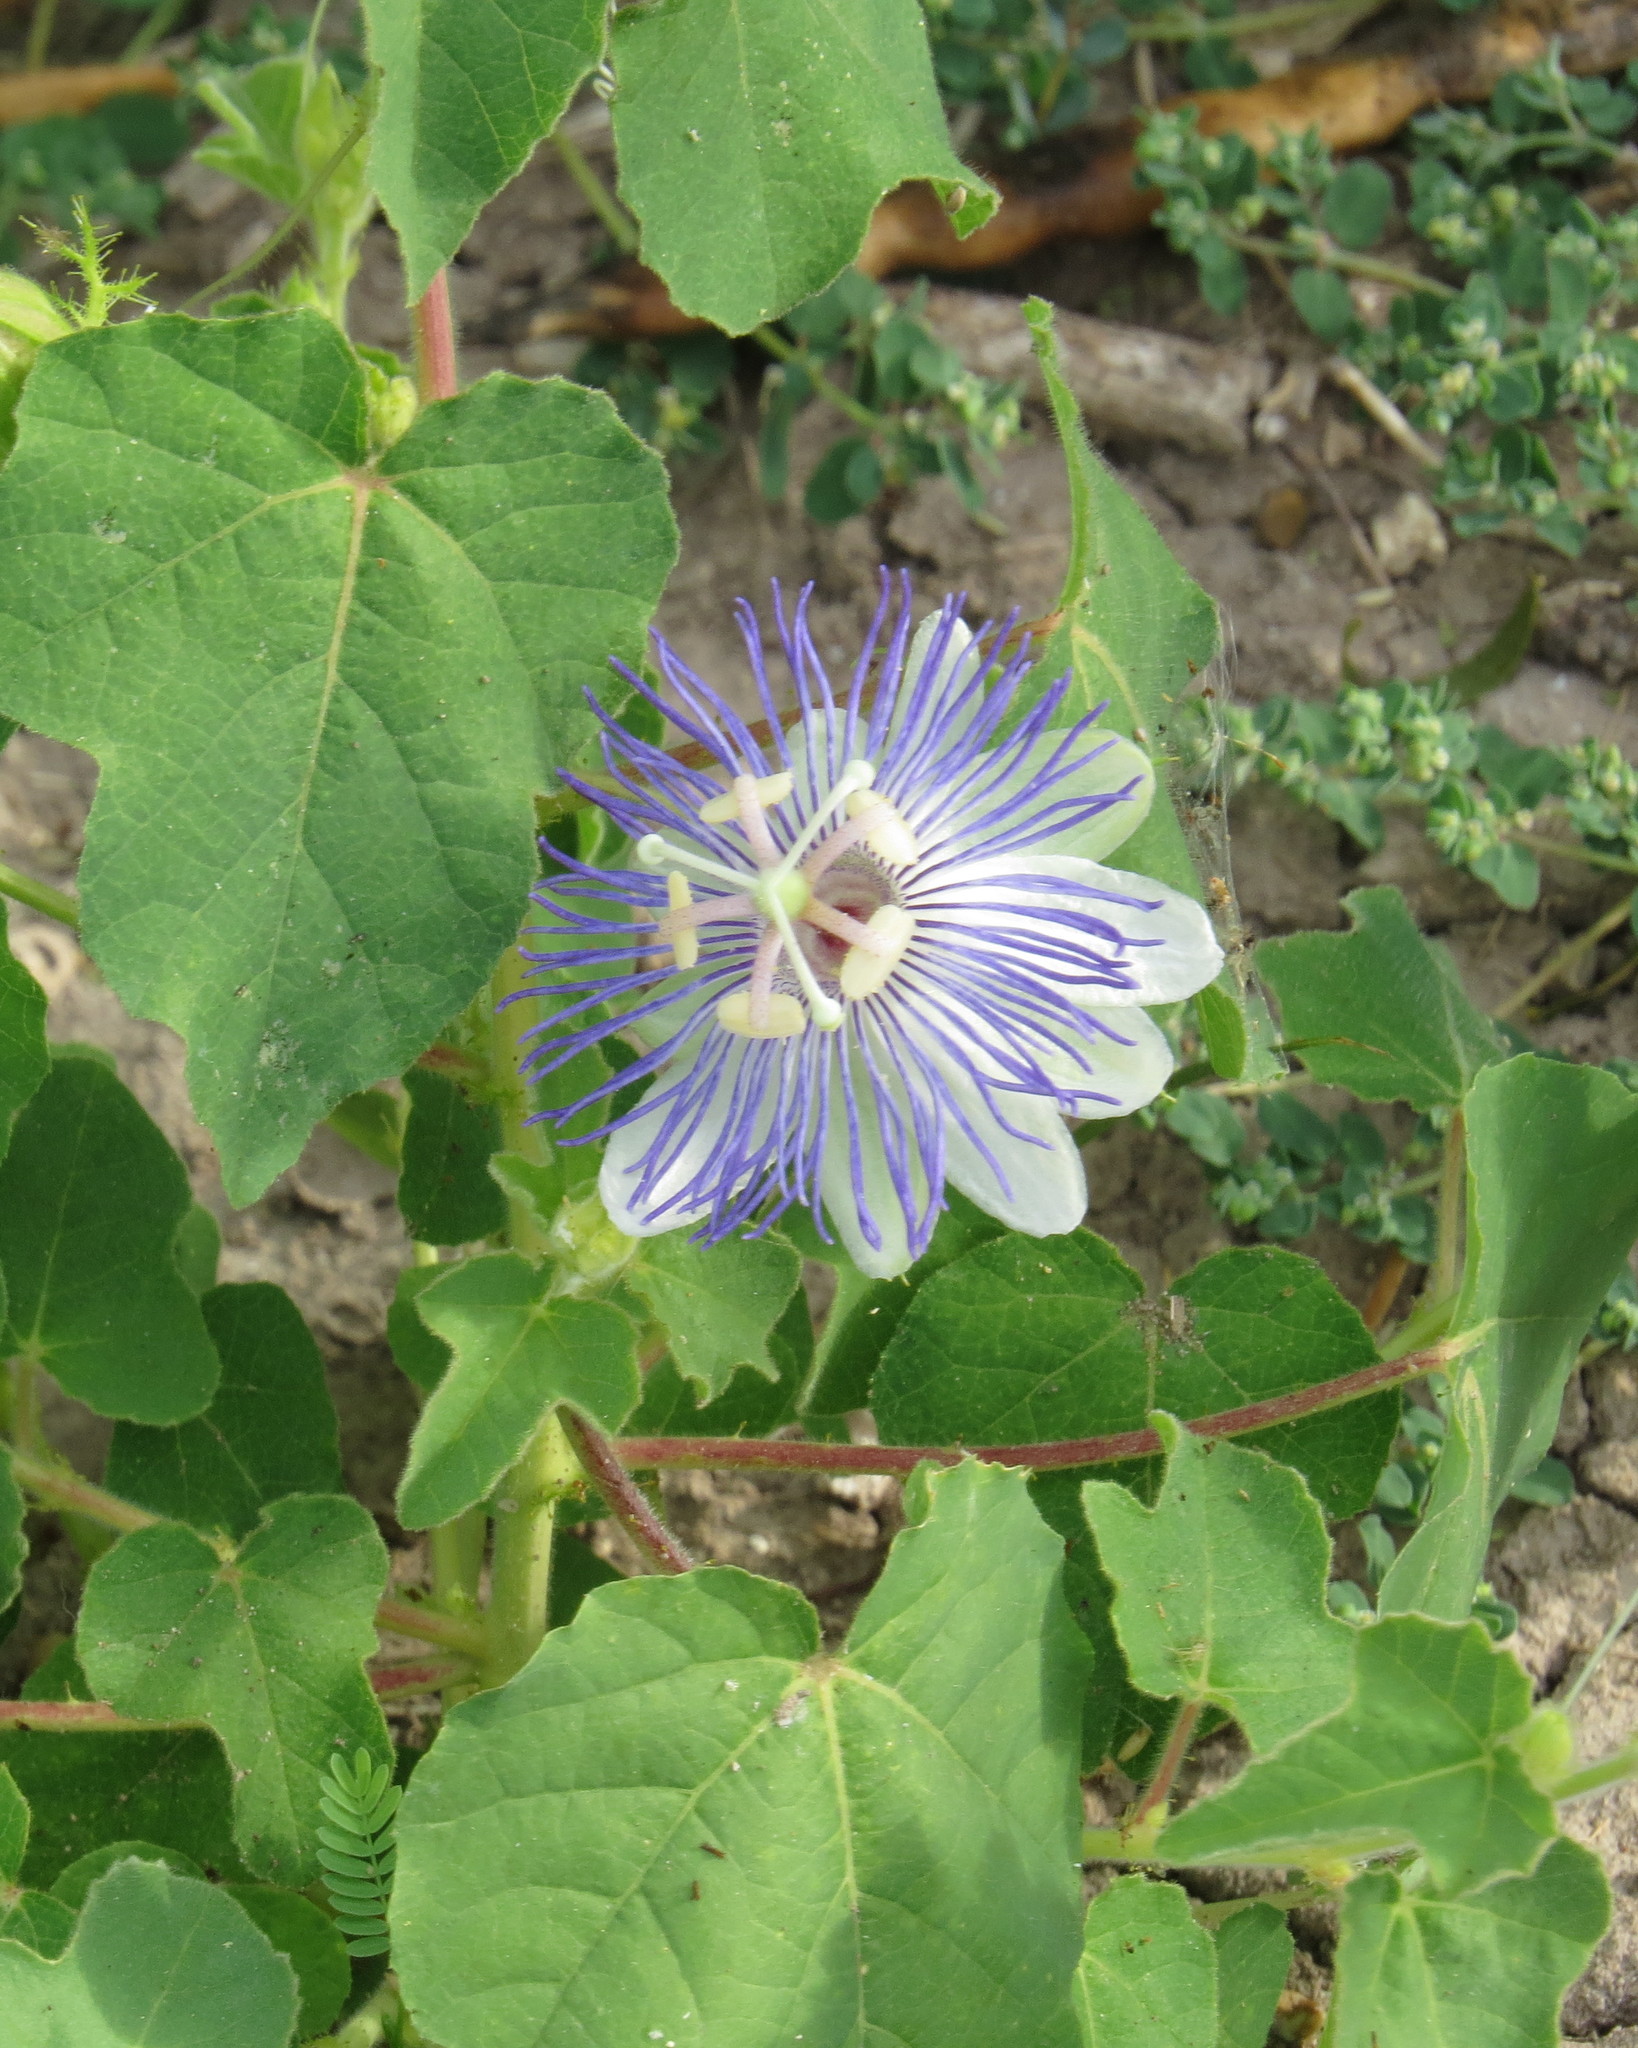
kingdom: Plantae
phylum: Tracheophyta
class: Magnoliopsida
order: Malpighiales
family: Passifloraceae
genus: Passiflora
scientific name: Passiflora foetida
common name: Fetid passionflower
